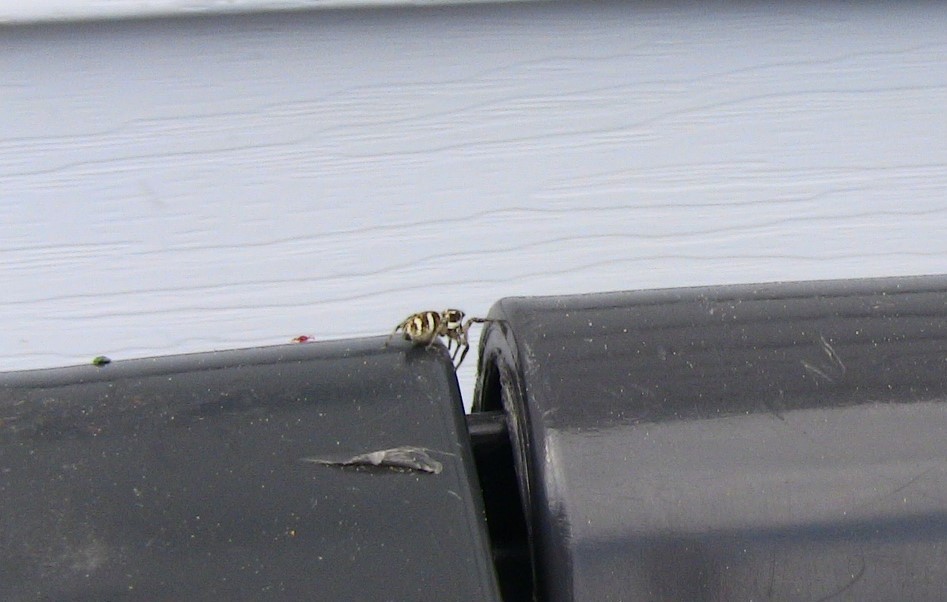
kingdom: Animalia
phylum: Arthropoda
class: Arachnida
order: Araneae
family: Salticidae
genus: Salticus
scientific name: Salticus scenicus
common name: Zebra jumper
